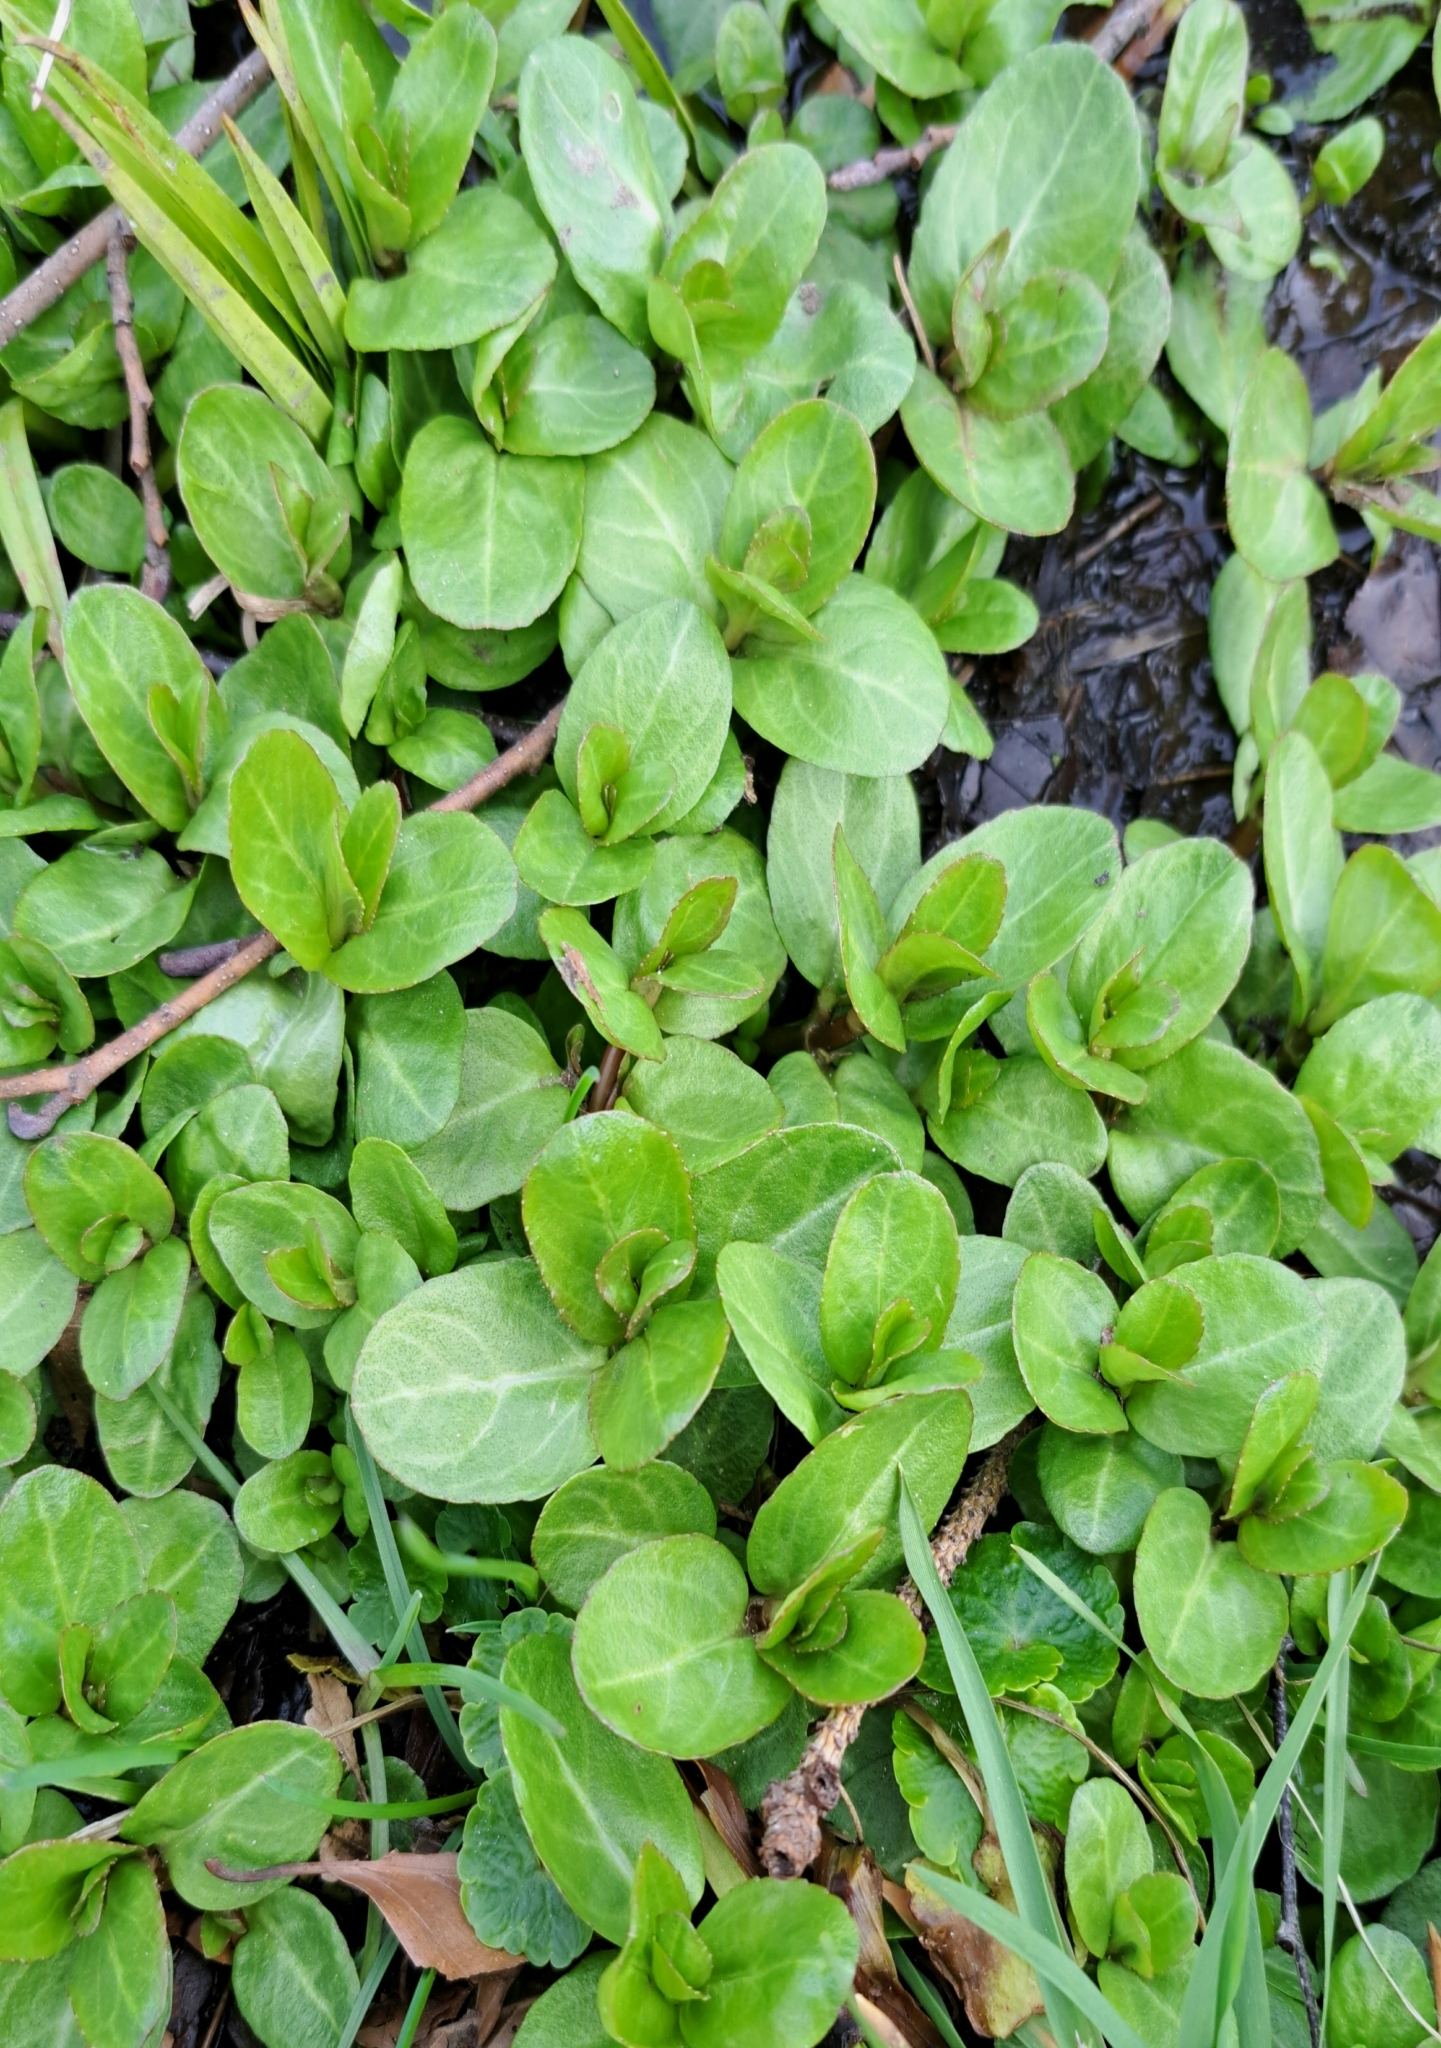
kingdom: Plantae
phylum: Tracheophyta
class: Magnoliopsida
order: Lamiales
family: Plantaginaceae
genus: Veronica
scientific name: Veronica beccabunga
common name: Brooklime
